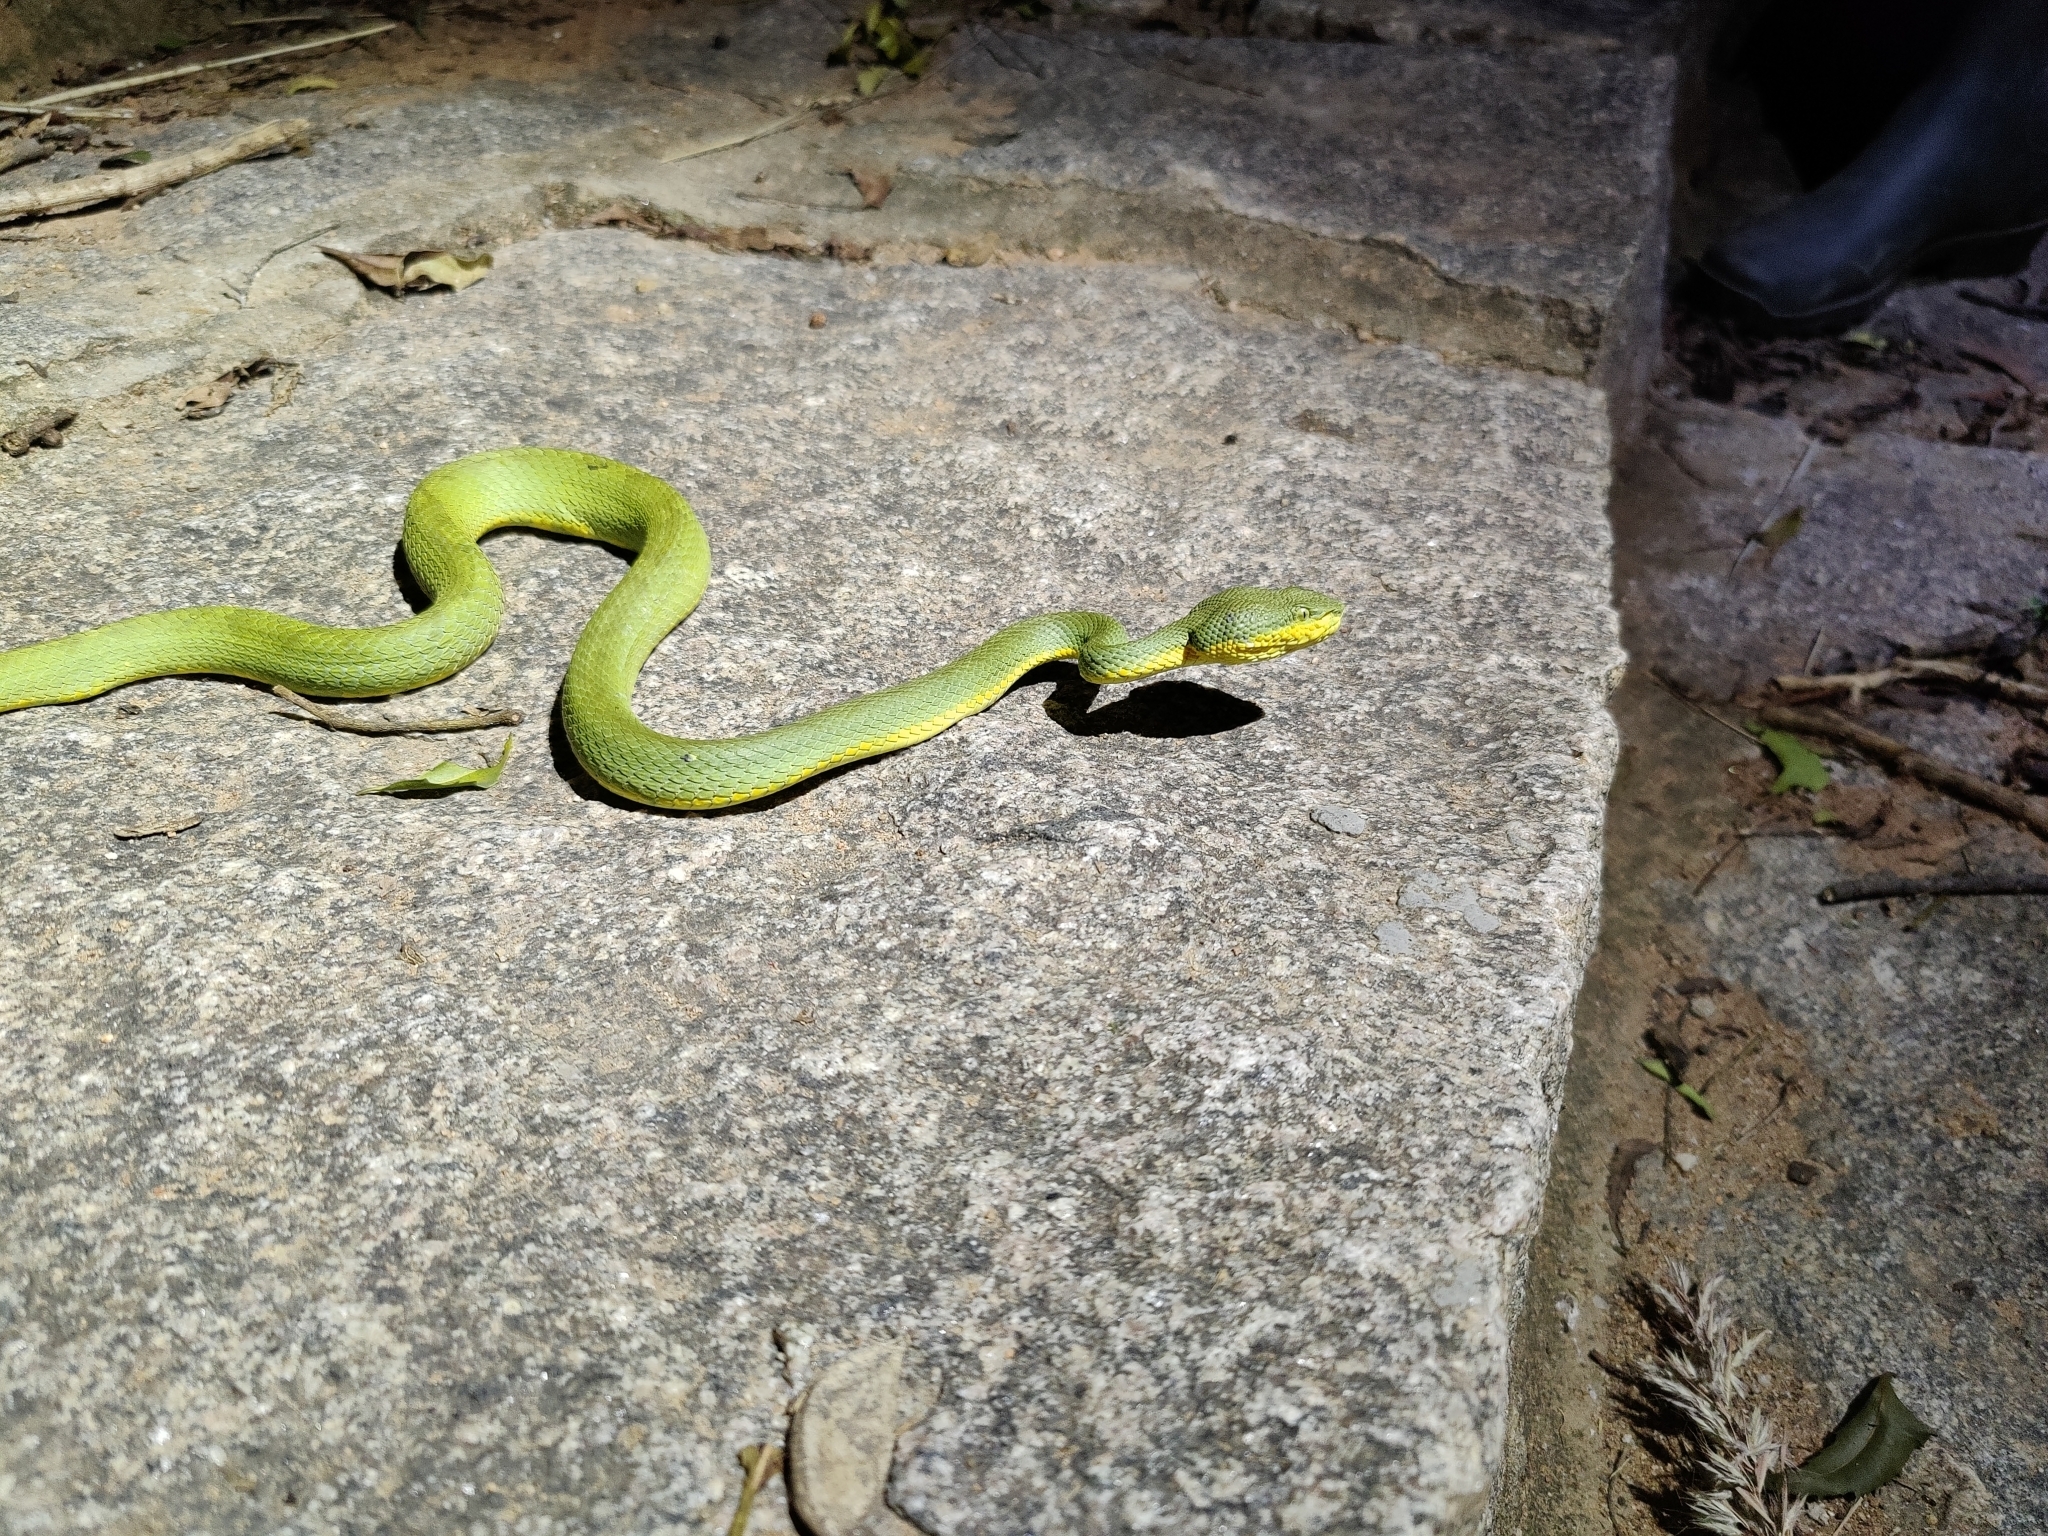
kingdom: Animalia
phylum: Chordata
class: Squamata
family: Viperidae
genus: Craspedocephalus
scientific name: Craspedocephalus gramineus
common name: Common bamboo viper
